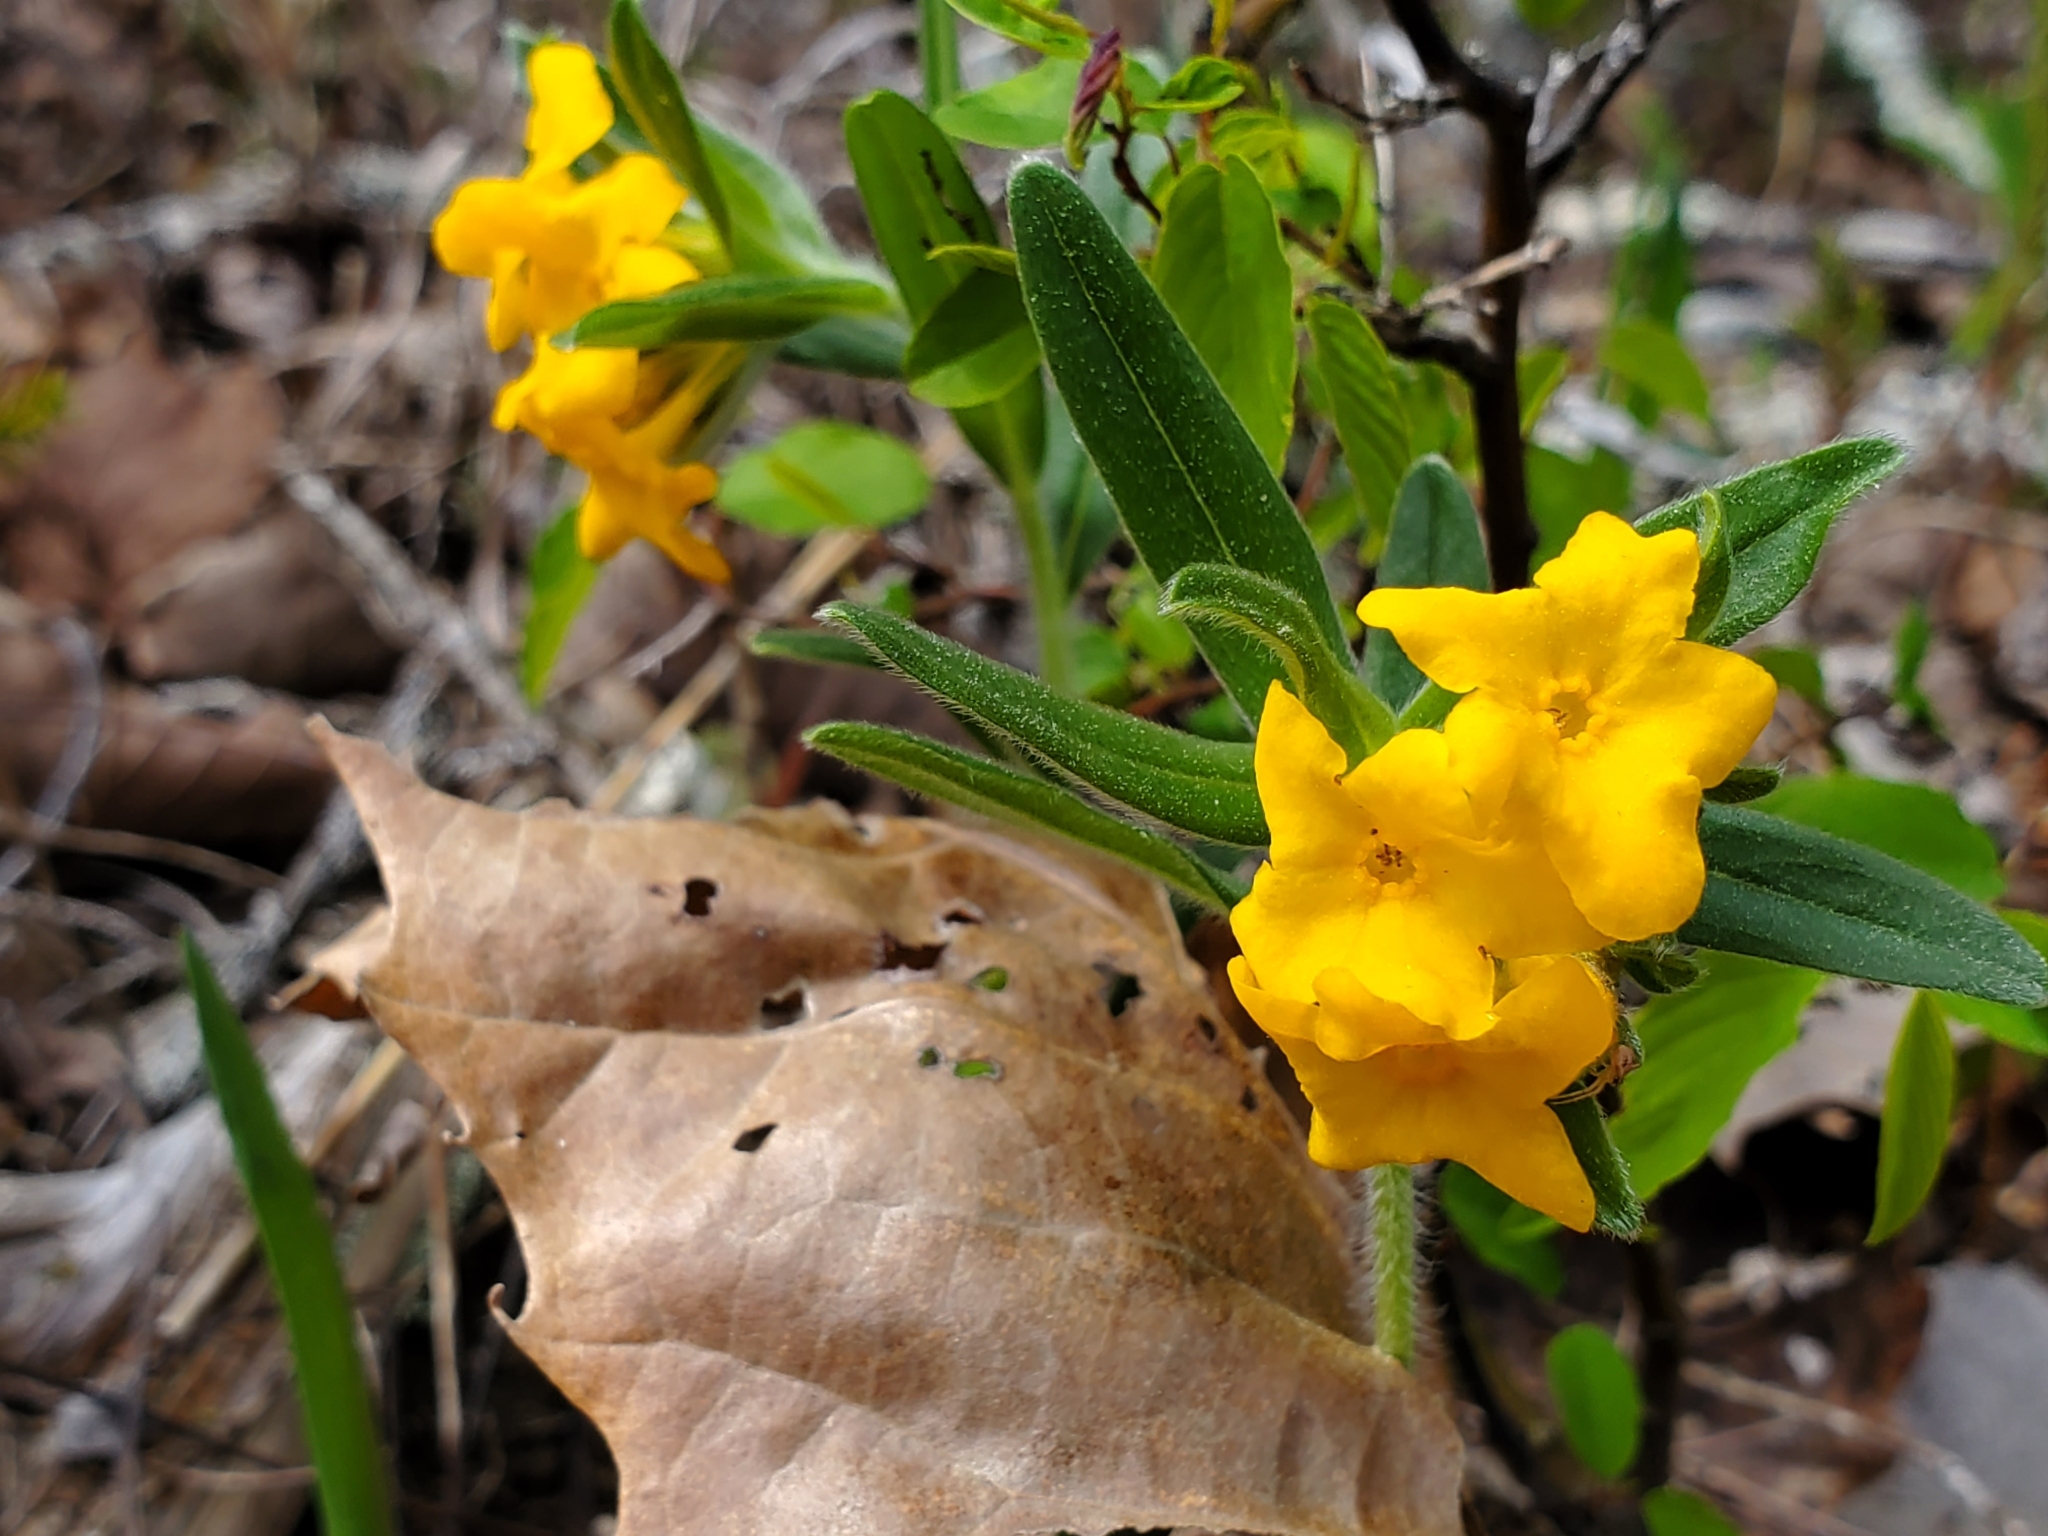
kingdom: Plantae
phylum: Tracheophyta
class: Magnoliopsida
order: Boraginales
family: Boraginaceae
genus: Lithospermum
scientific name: Lithospermum canescens
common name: Hoary puccoon
